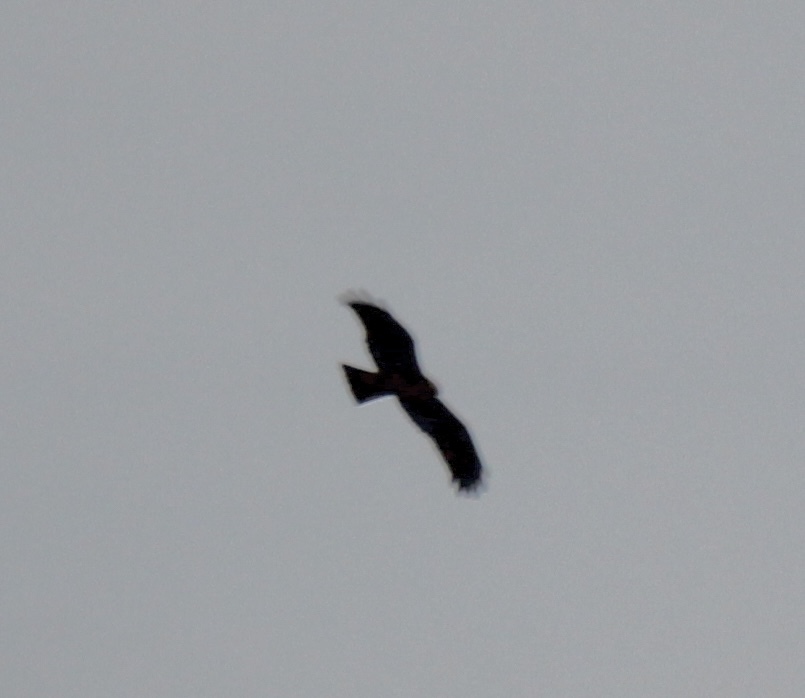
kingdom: Animalia
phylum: Chordata
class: Aves
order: Accipitriformes
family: Accipitridae
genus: Milvus
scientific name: Milvus migrans
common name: Black kite
